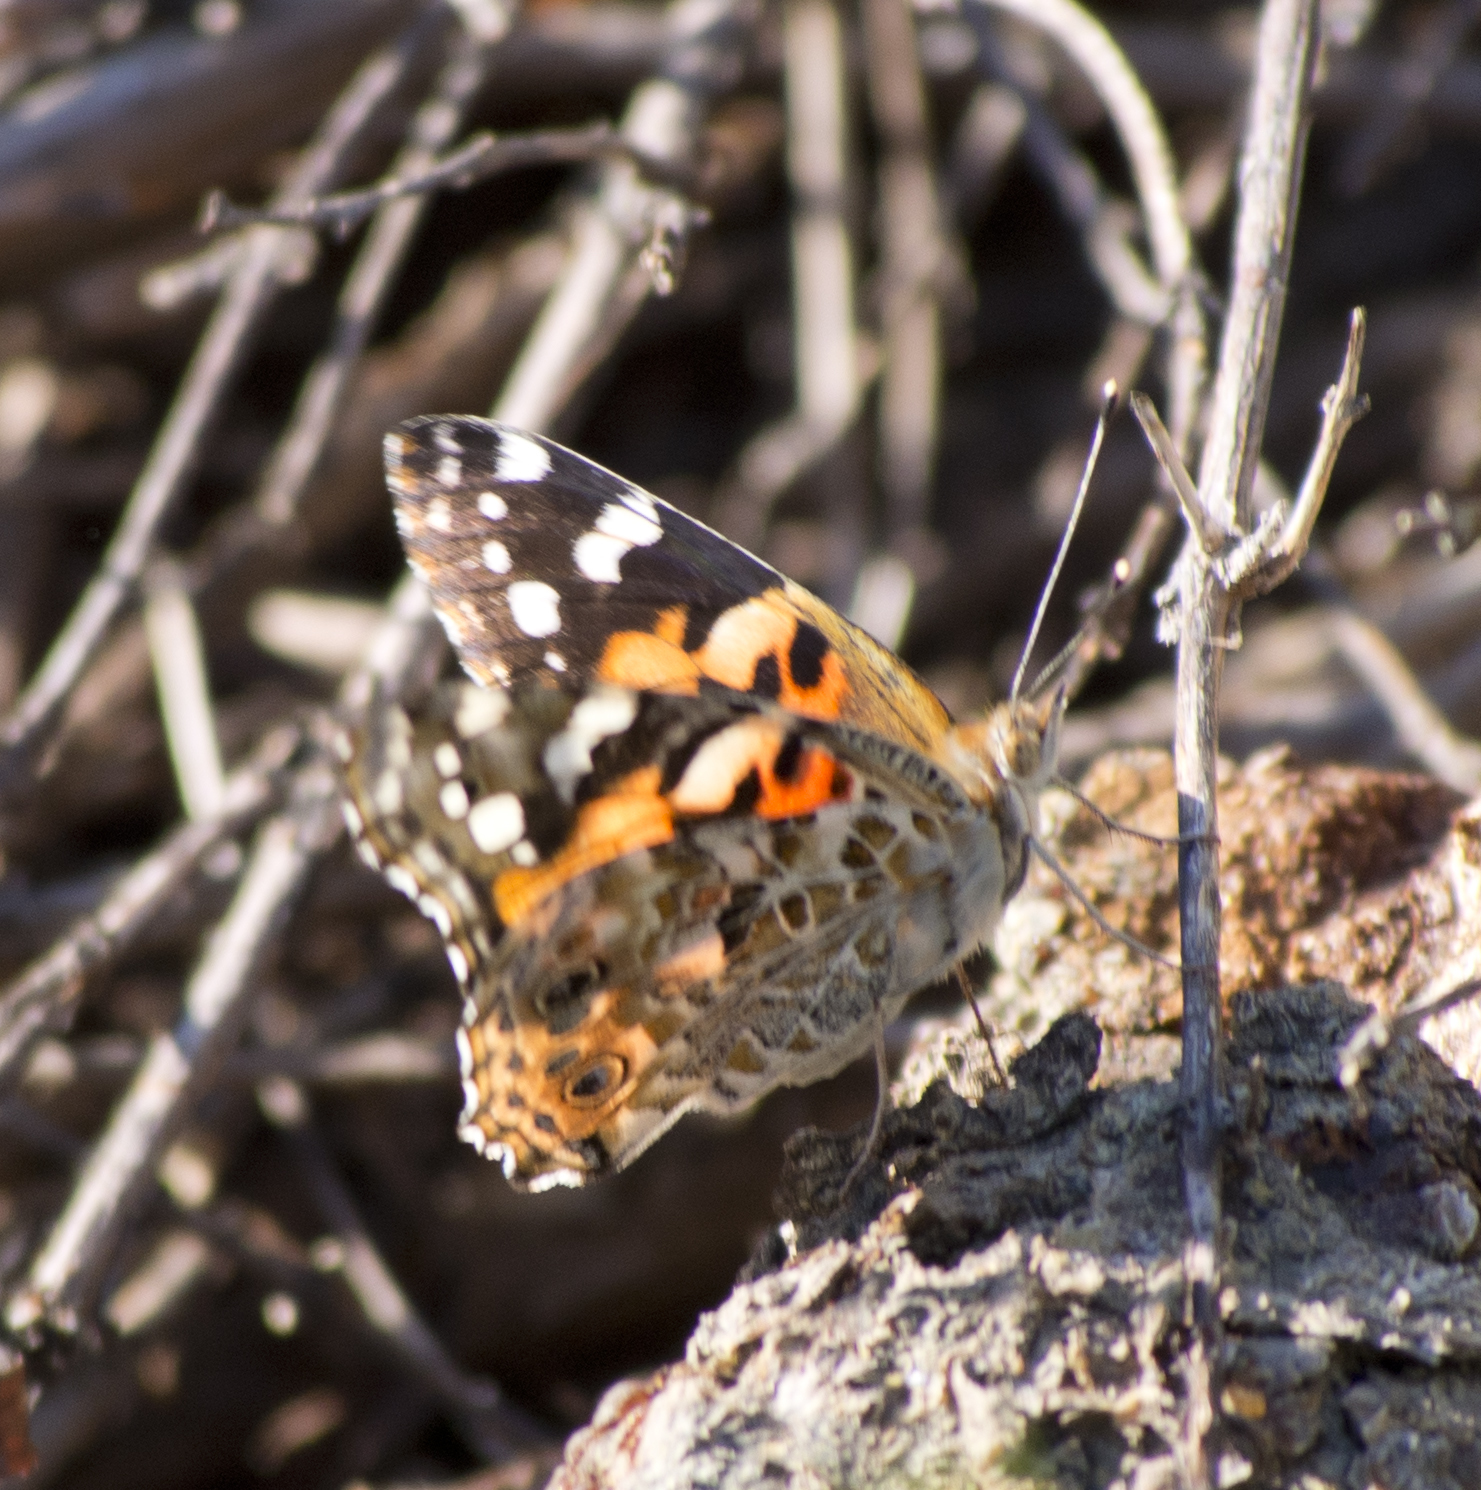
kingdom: Animalia
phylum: Arthropoda
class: Insecta
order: Lepidoptera
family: Nymphalidae
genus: Vanessa
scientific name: Vanessa cardui
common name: Painted lady
